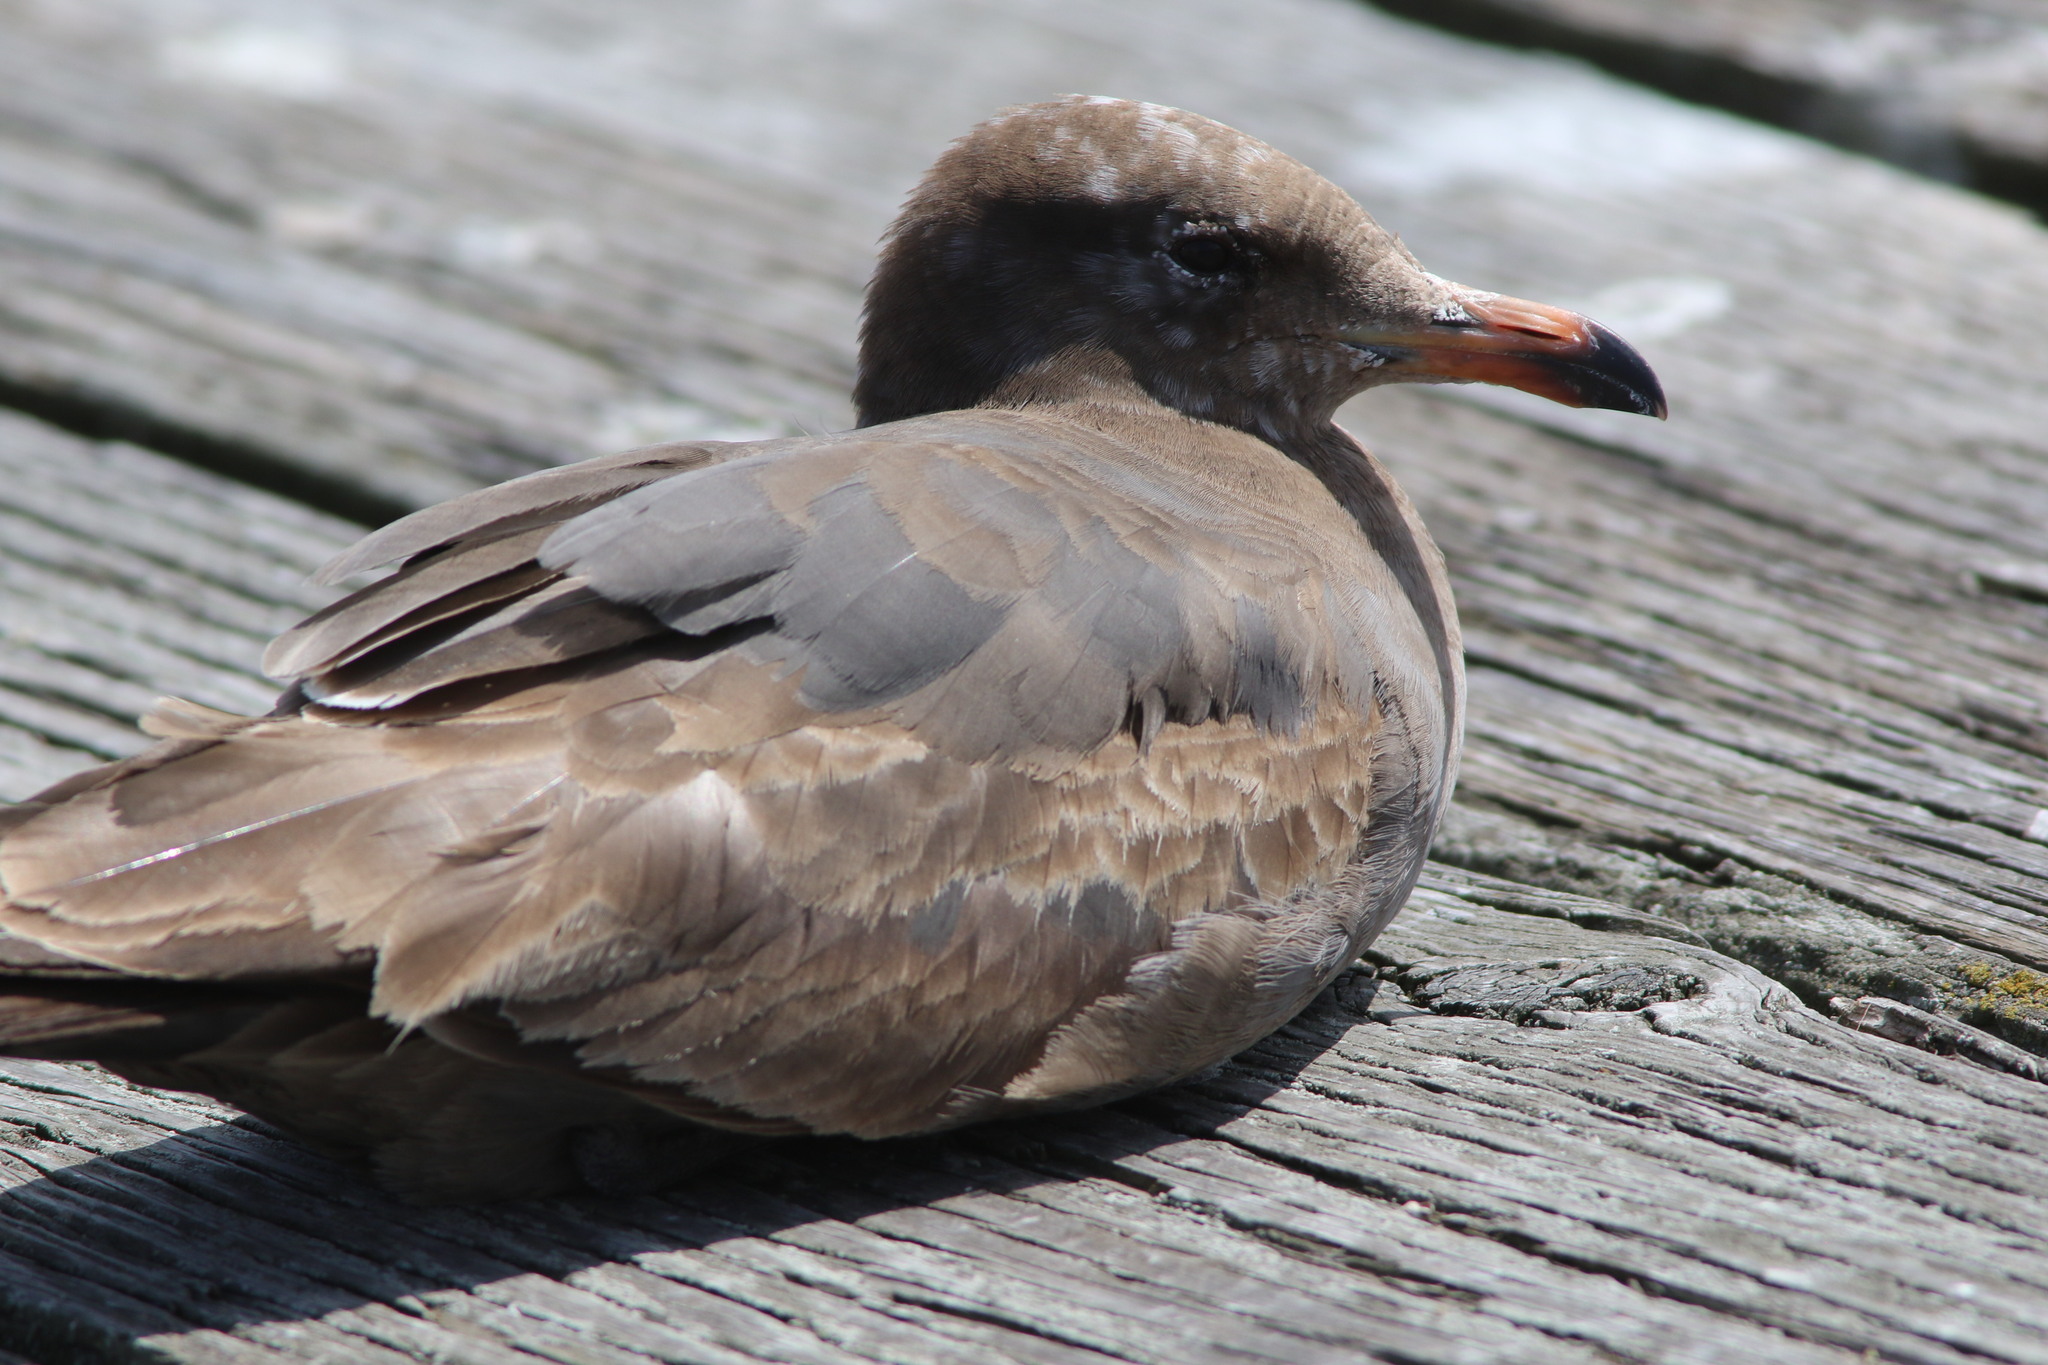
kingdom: Animalia
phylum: Chordata
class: Aves
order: Charadriiformes
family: Laridae
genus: Larus
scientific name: Larus heermanni
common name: Heermann's gull
